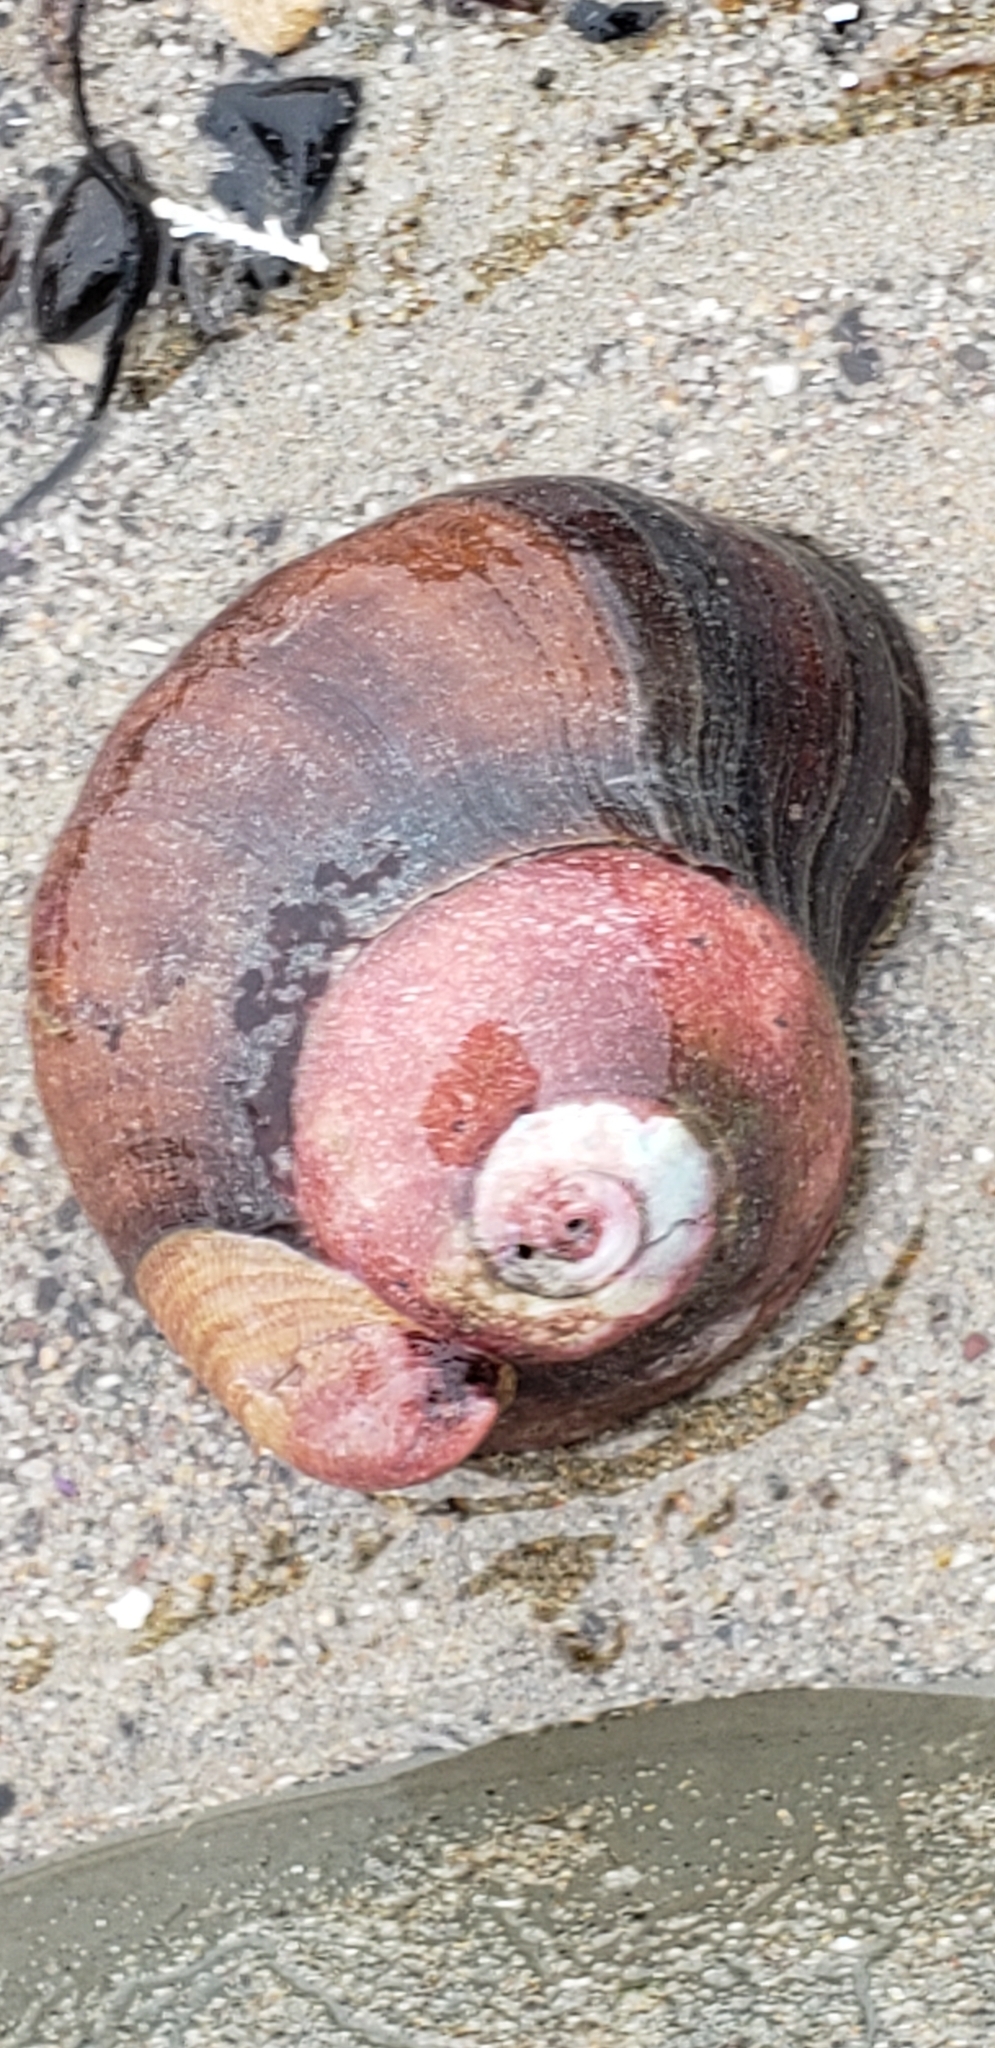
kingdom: Animalia
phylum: Mollusca
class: Gastropoda
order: Trochida
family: Tegulidae
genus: Norrisia
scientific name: Norrisia norrisii
